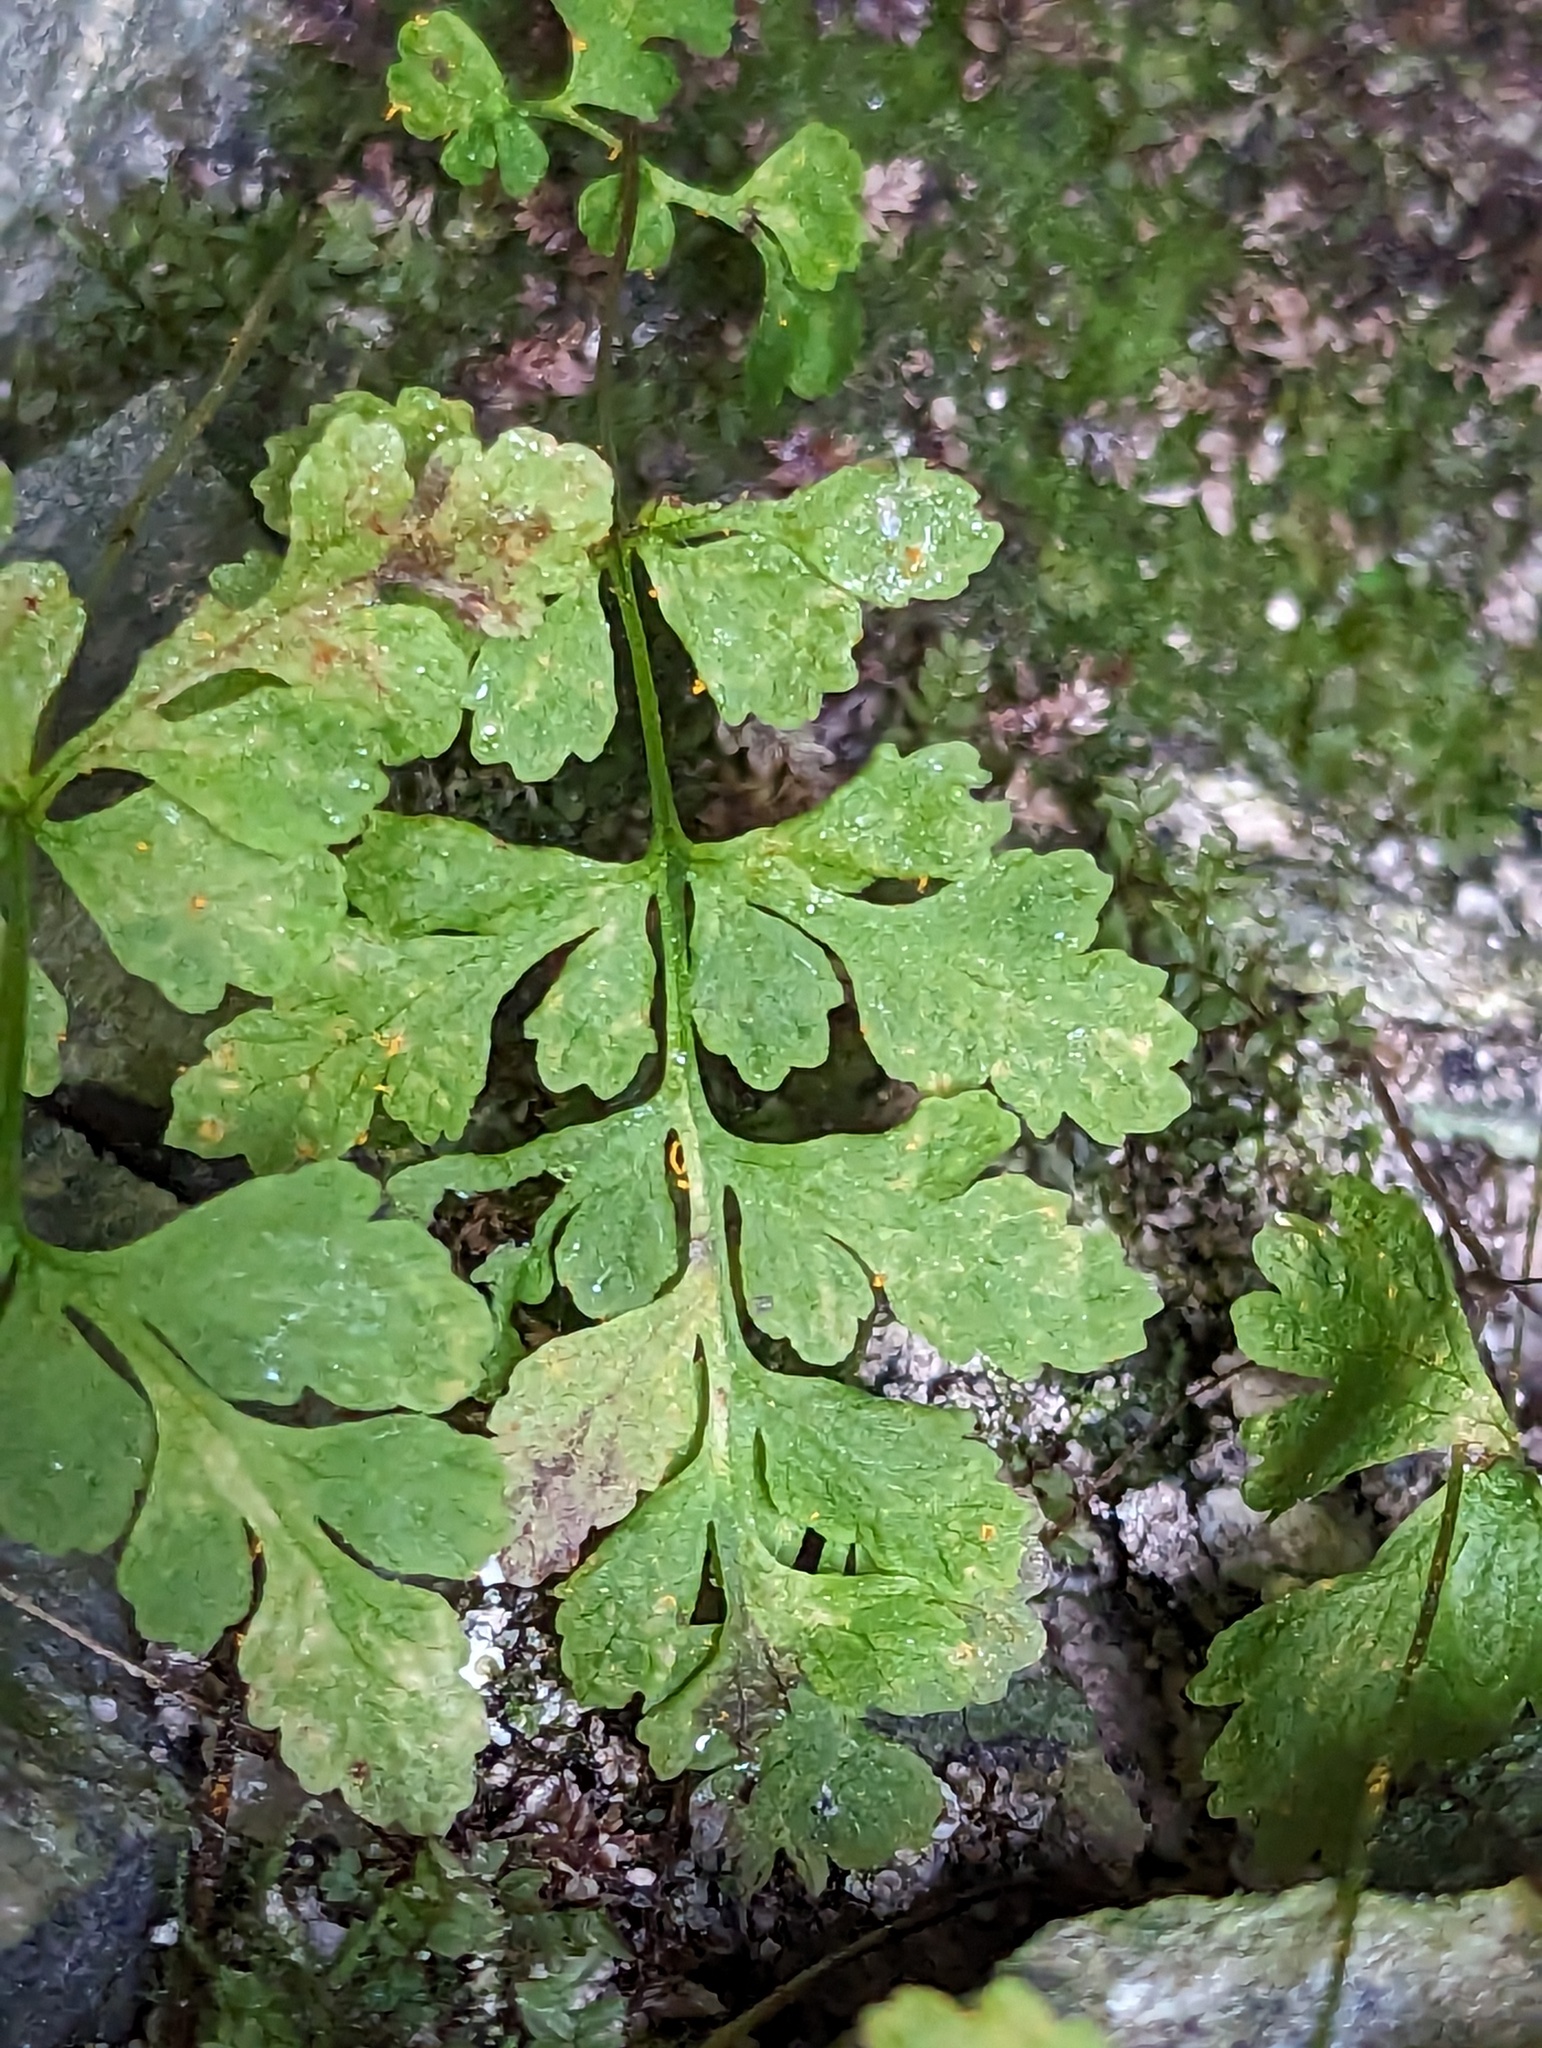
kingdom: Plantae
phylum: Tracheophyta
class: Polypodiopsida
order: Polypodiales
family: Pteridaceae
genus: Cryptogramma
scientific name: Cryptogramma stelleri
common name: Cliff-brake
